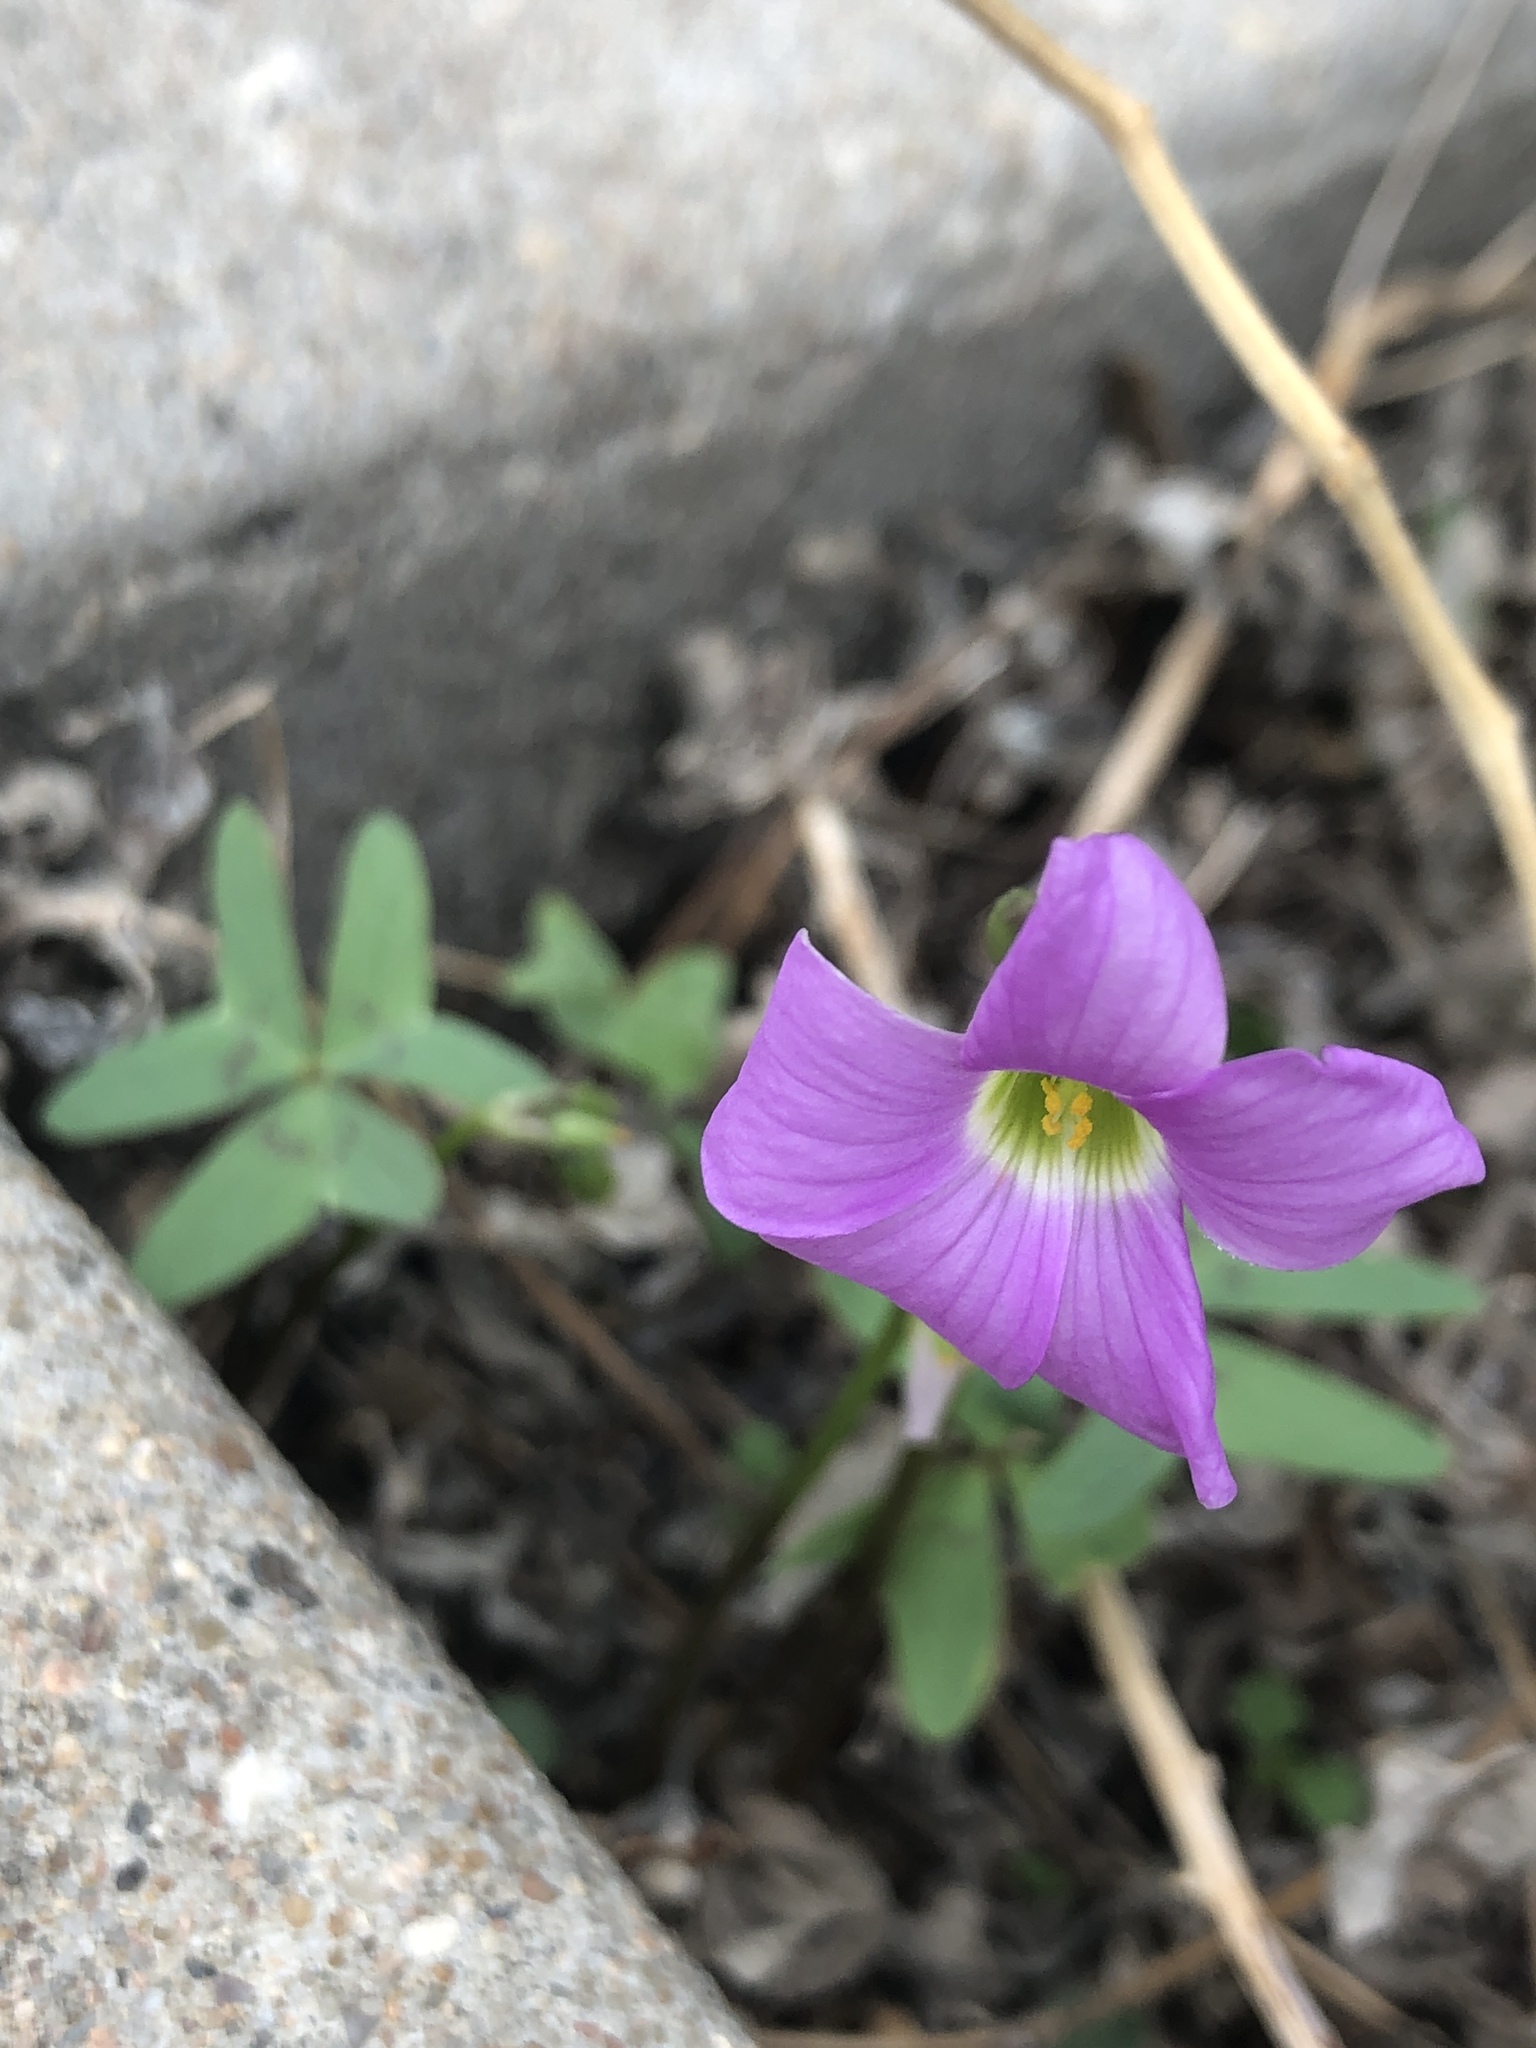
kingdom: Plantae
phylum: Tracheophyta
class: Magnoliopsida
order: Oxalidales
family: Oxalidaceae
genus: Oxalis
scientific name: Oxalis drummondii
